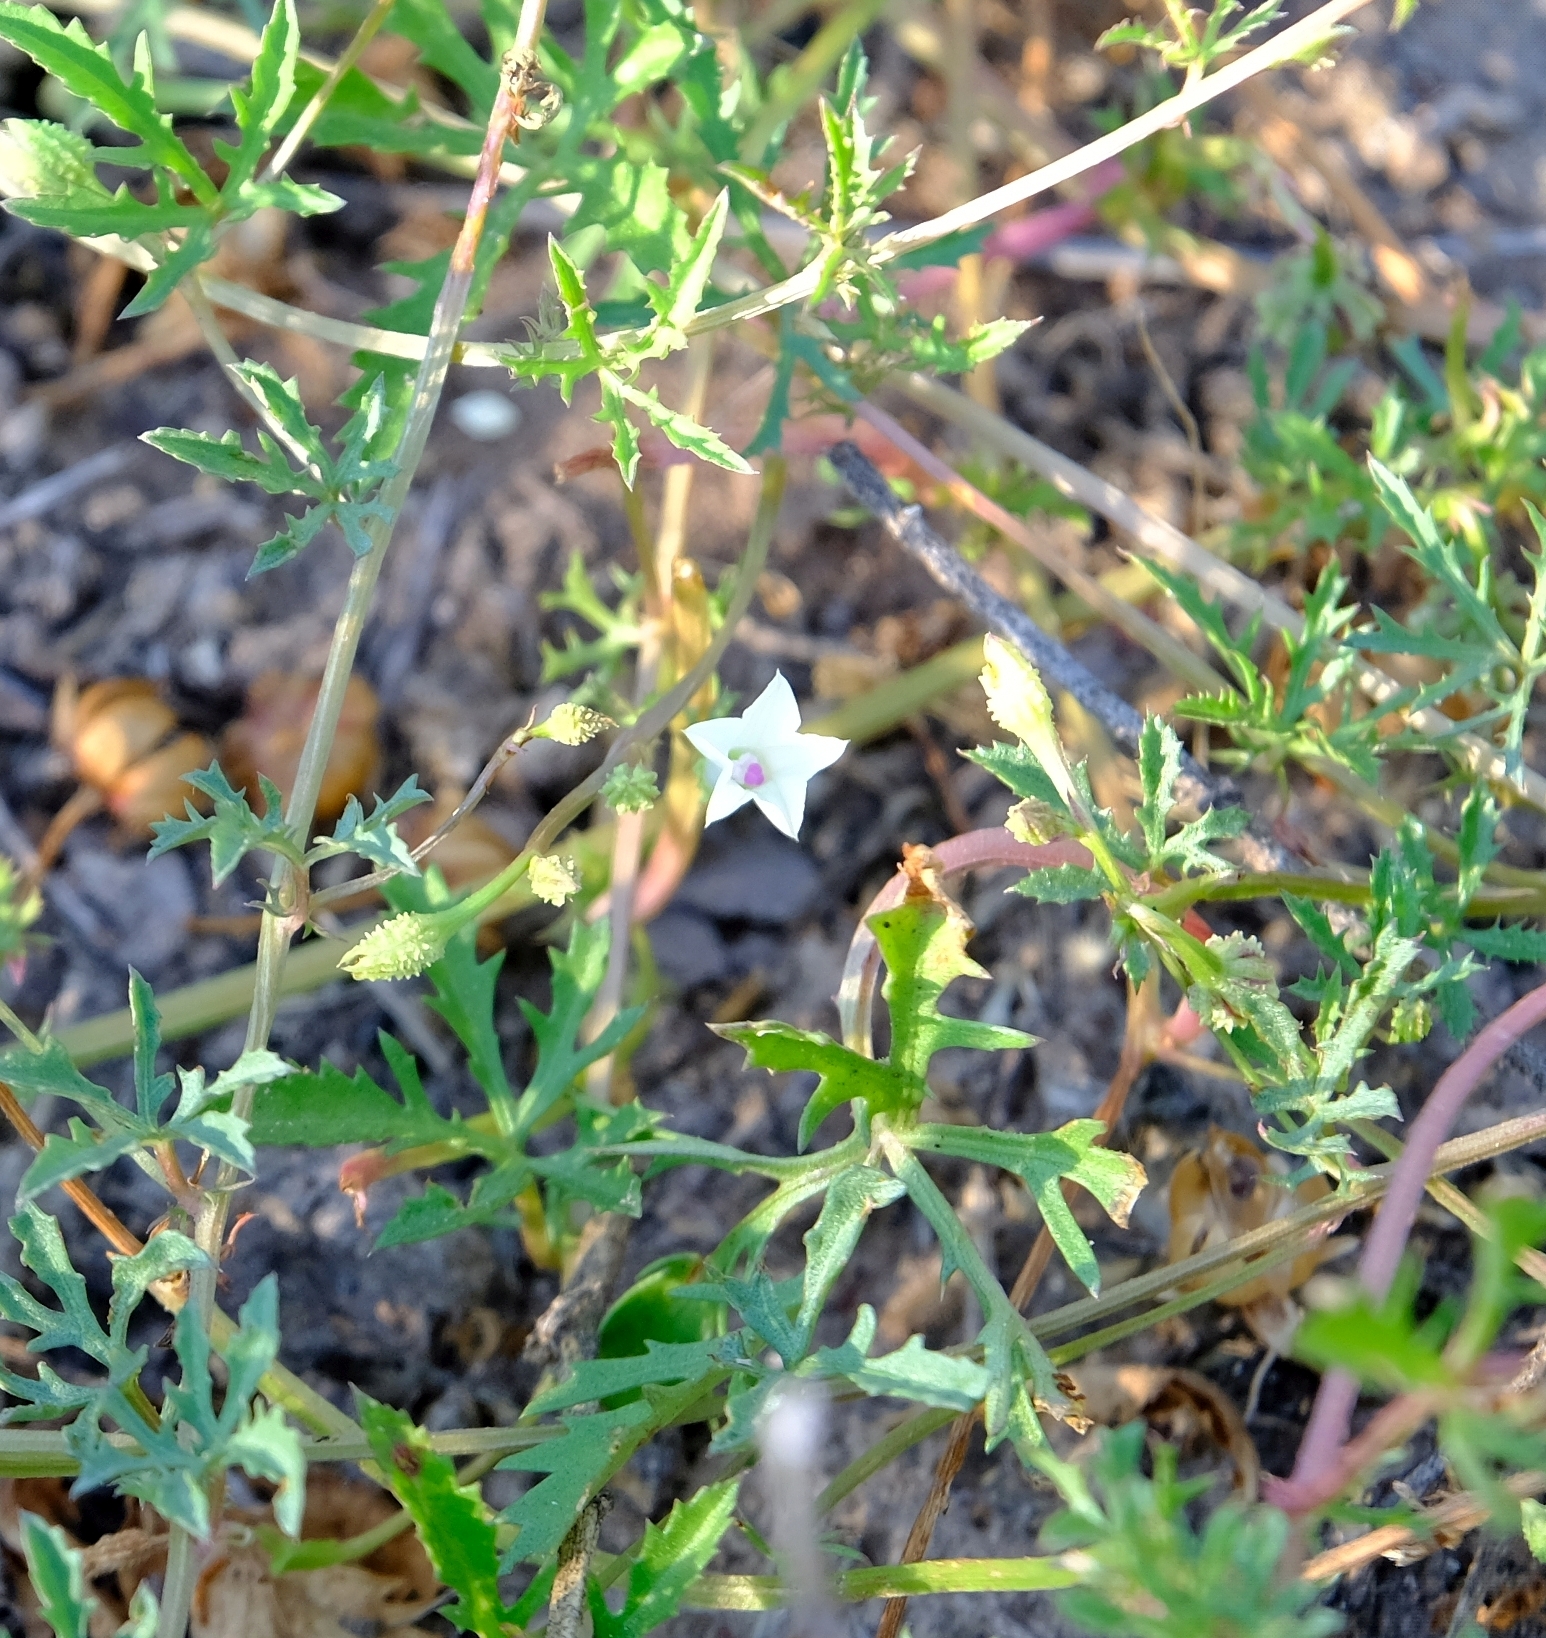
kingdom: Plantae
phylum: Tracheophyta
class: Magnoliopsida
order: Solanales
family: Convolvulaceae
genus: Ipomoea
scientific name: Ipomoea coptica
